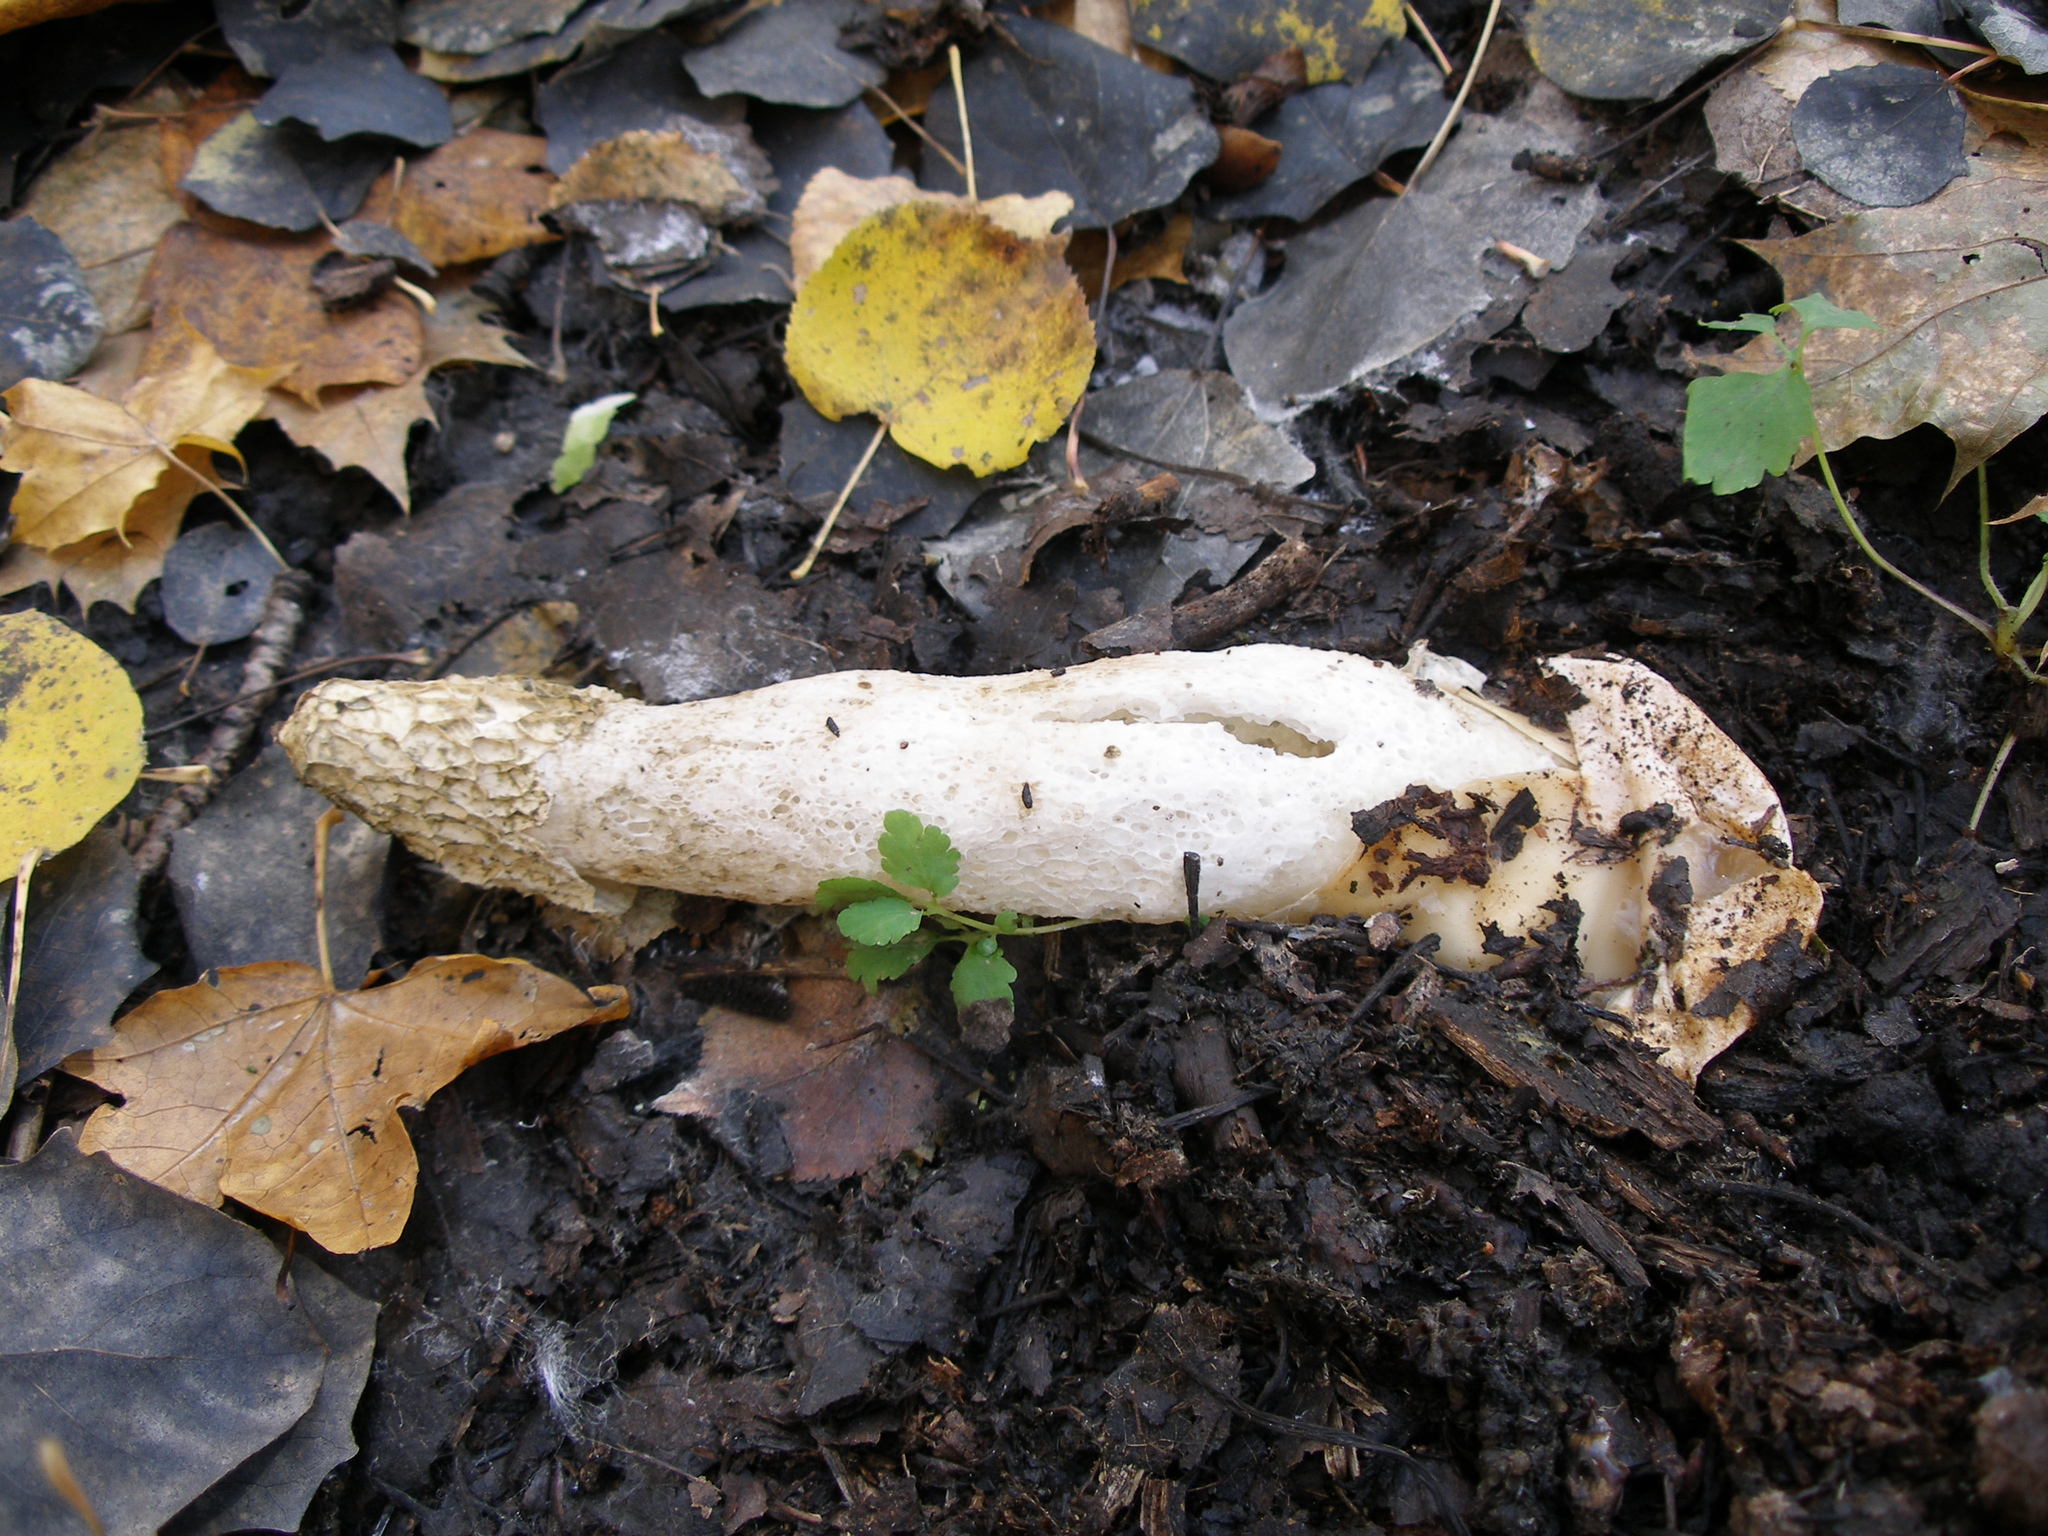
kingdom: Fungi
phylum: Basidiomycota
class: Agaricomycetes
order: Phallales
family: Phallaceae
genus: Phallus
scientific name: Phallus impudicus
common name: Common stinkhorn
